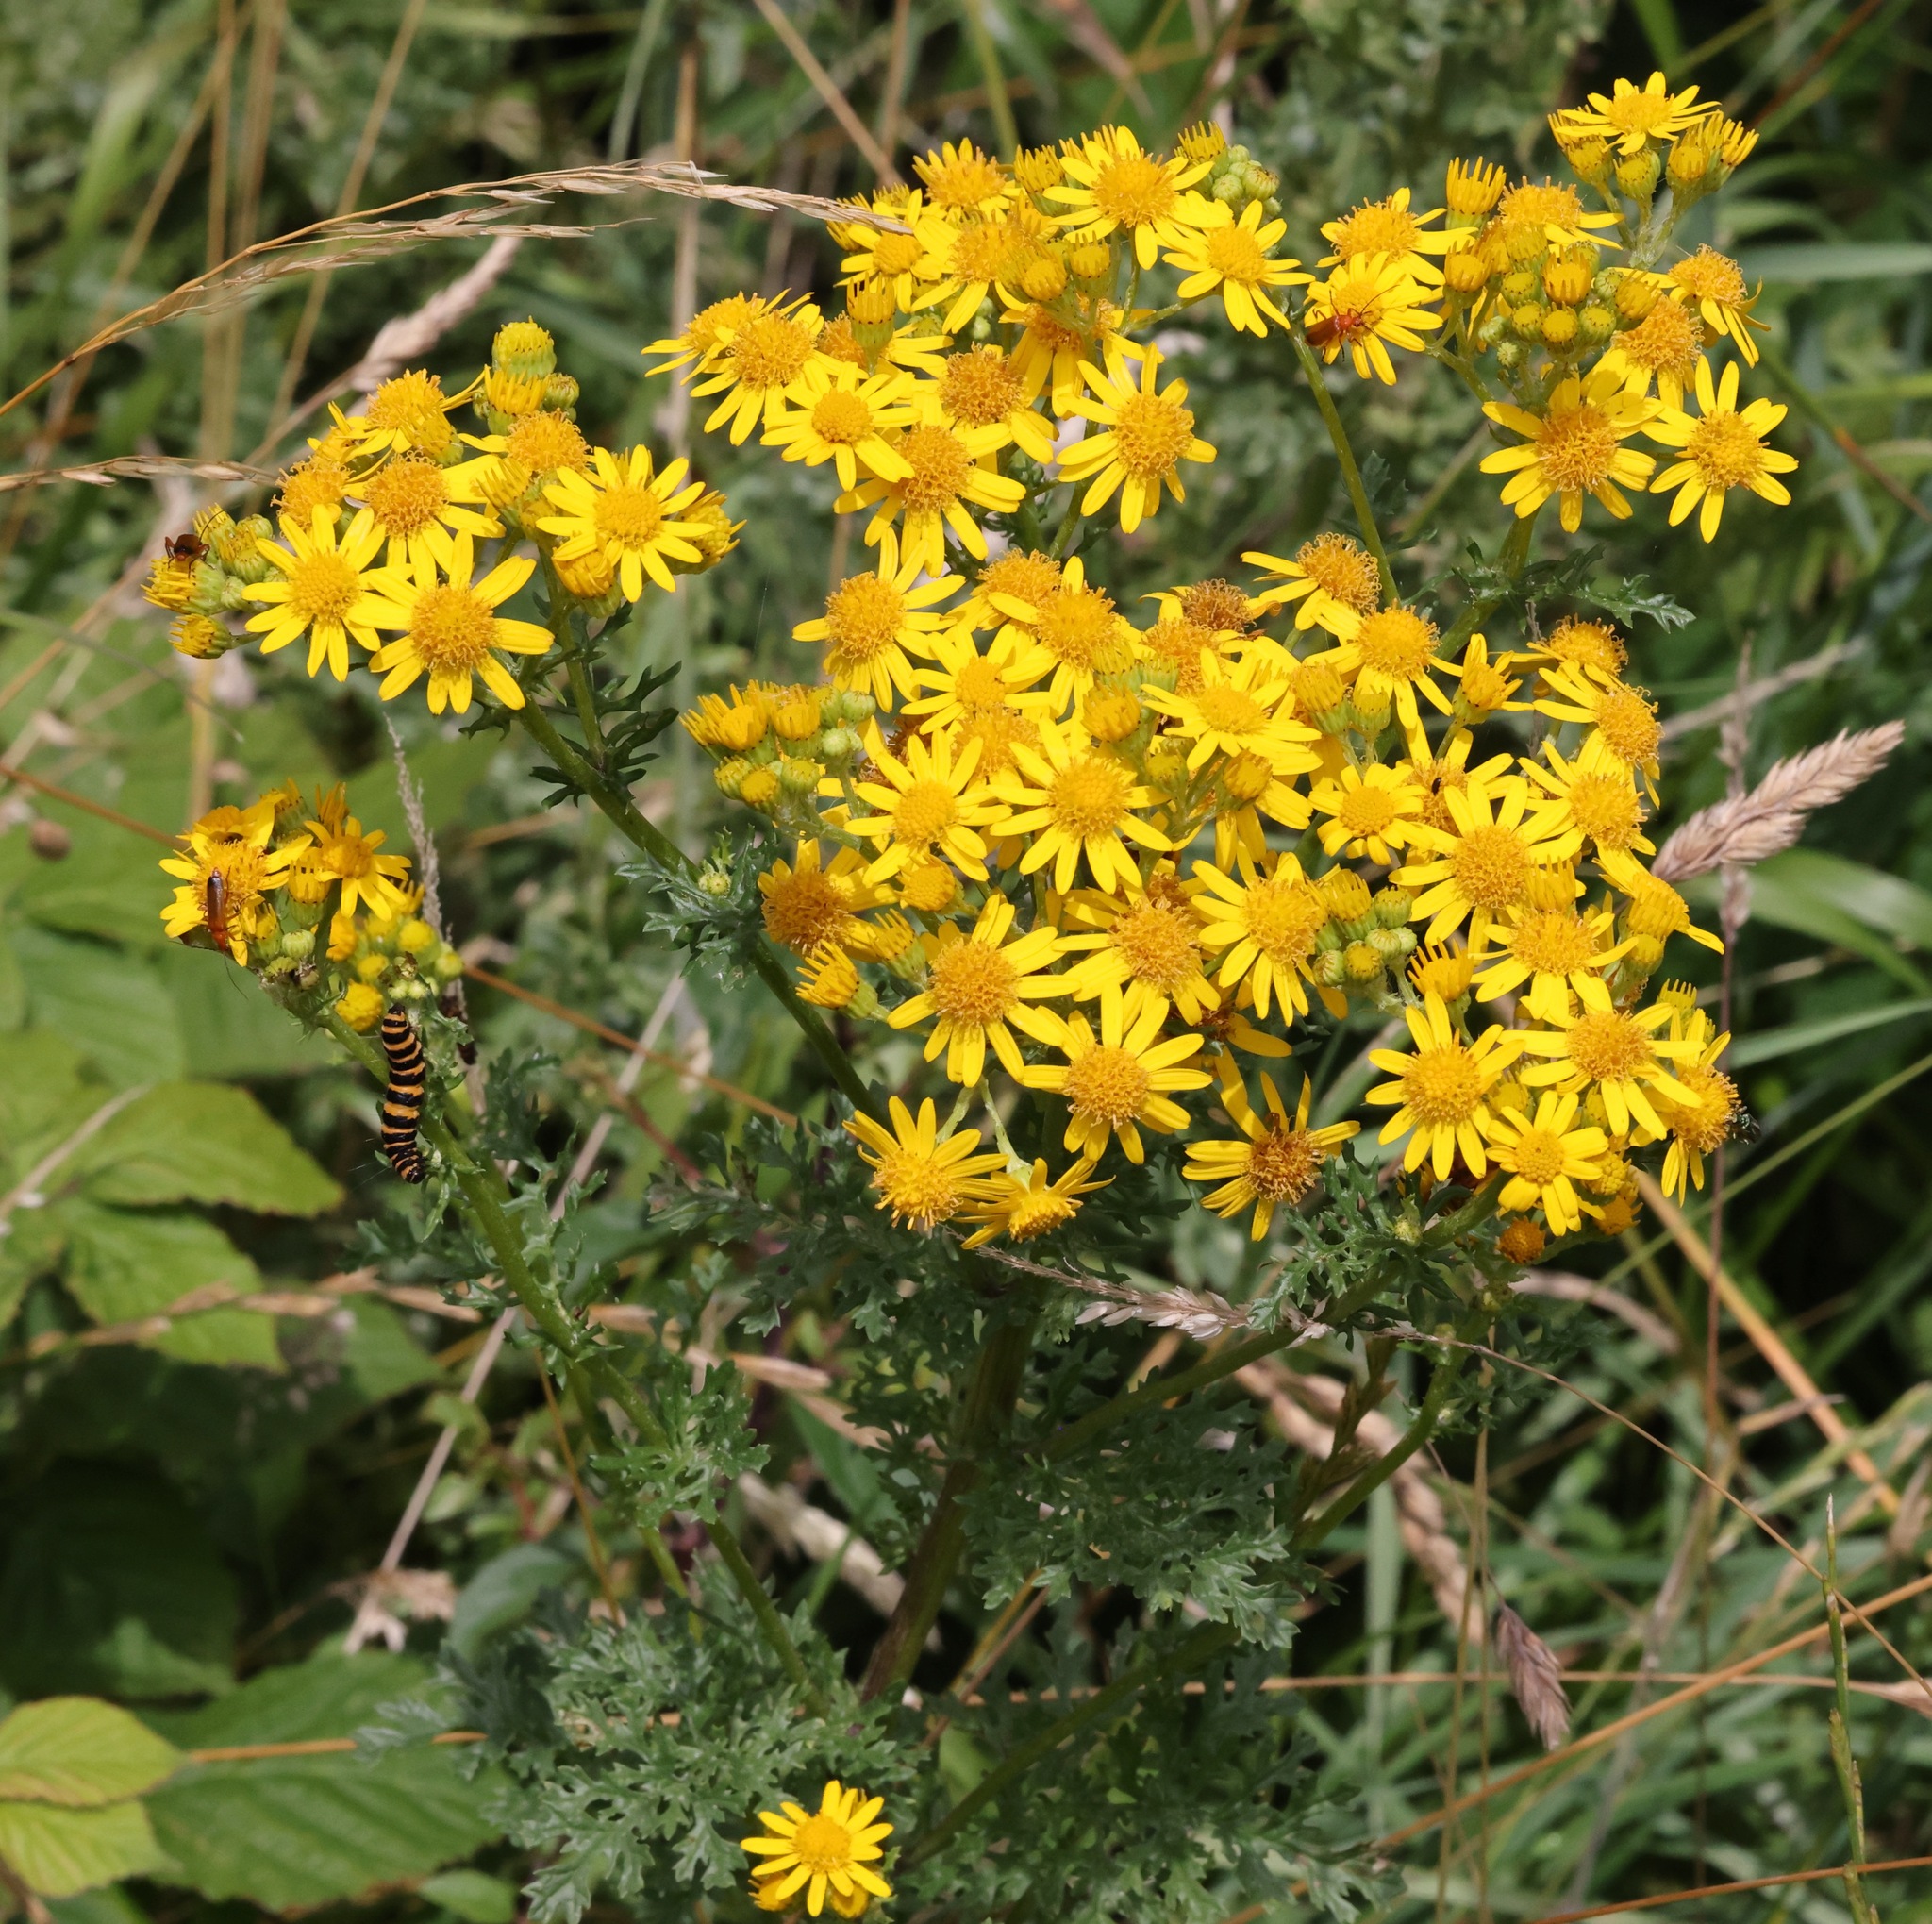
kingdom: Plantae
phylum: Tracheophyta
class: Magnoliopsida
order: Asterales
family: Asteraceae
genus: Jacobaea
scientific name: Jacobaea vulgaris
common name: Stinking willie
